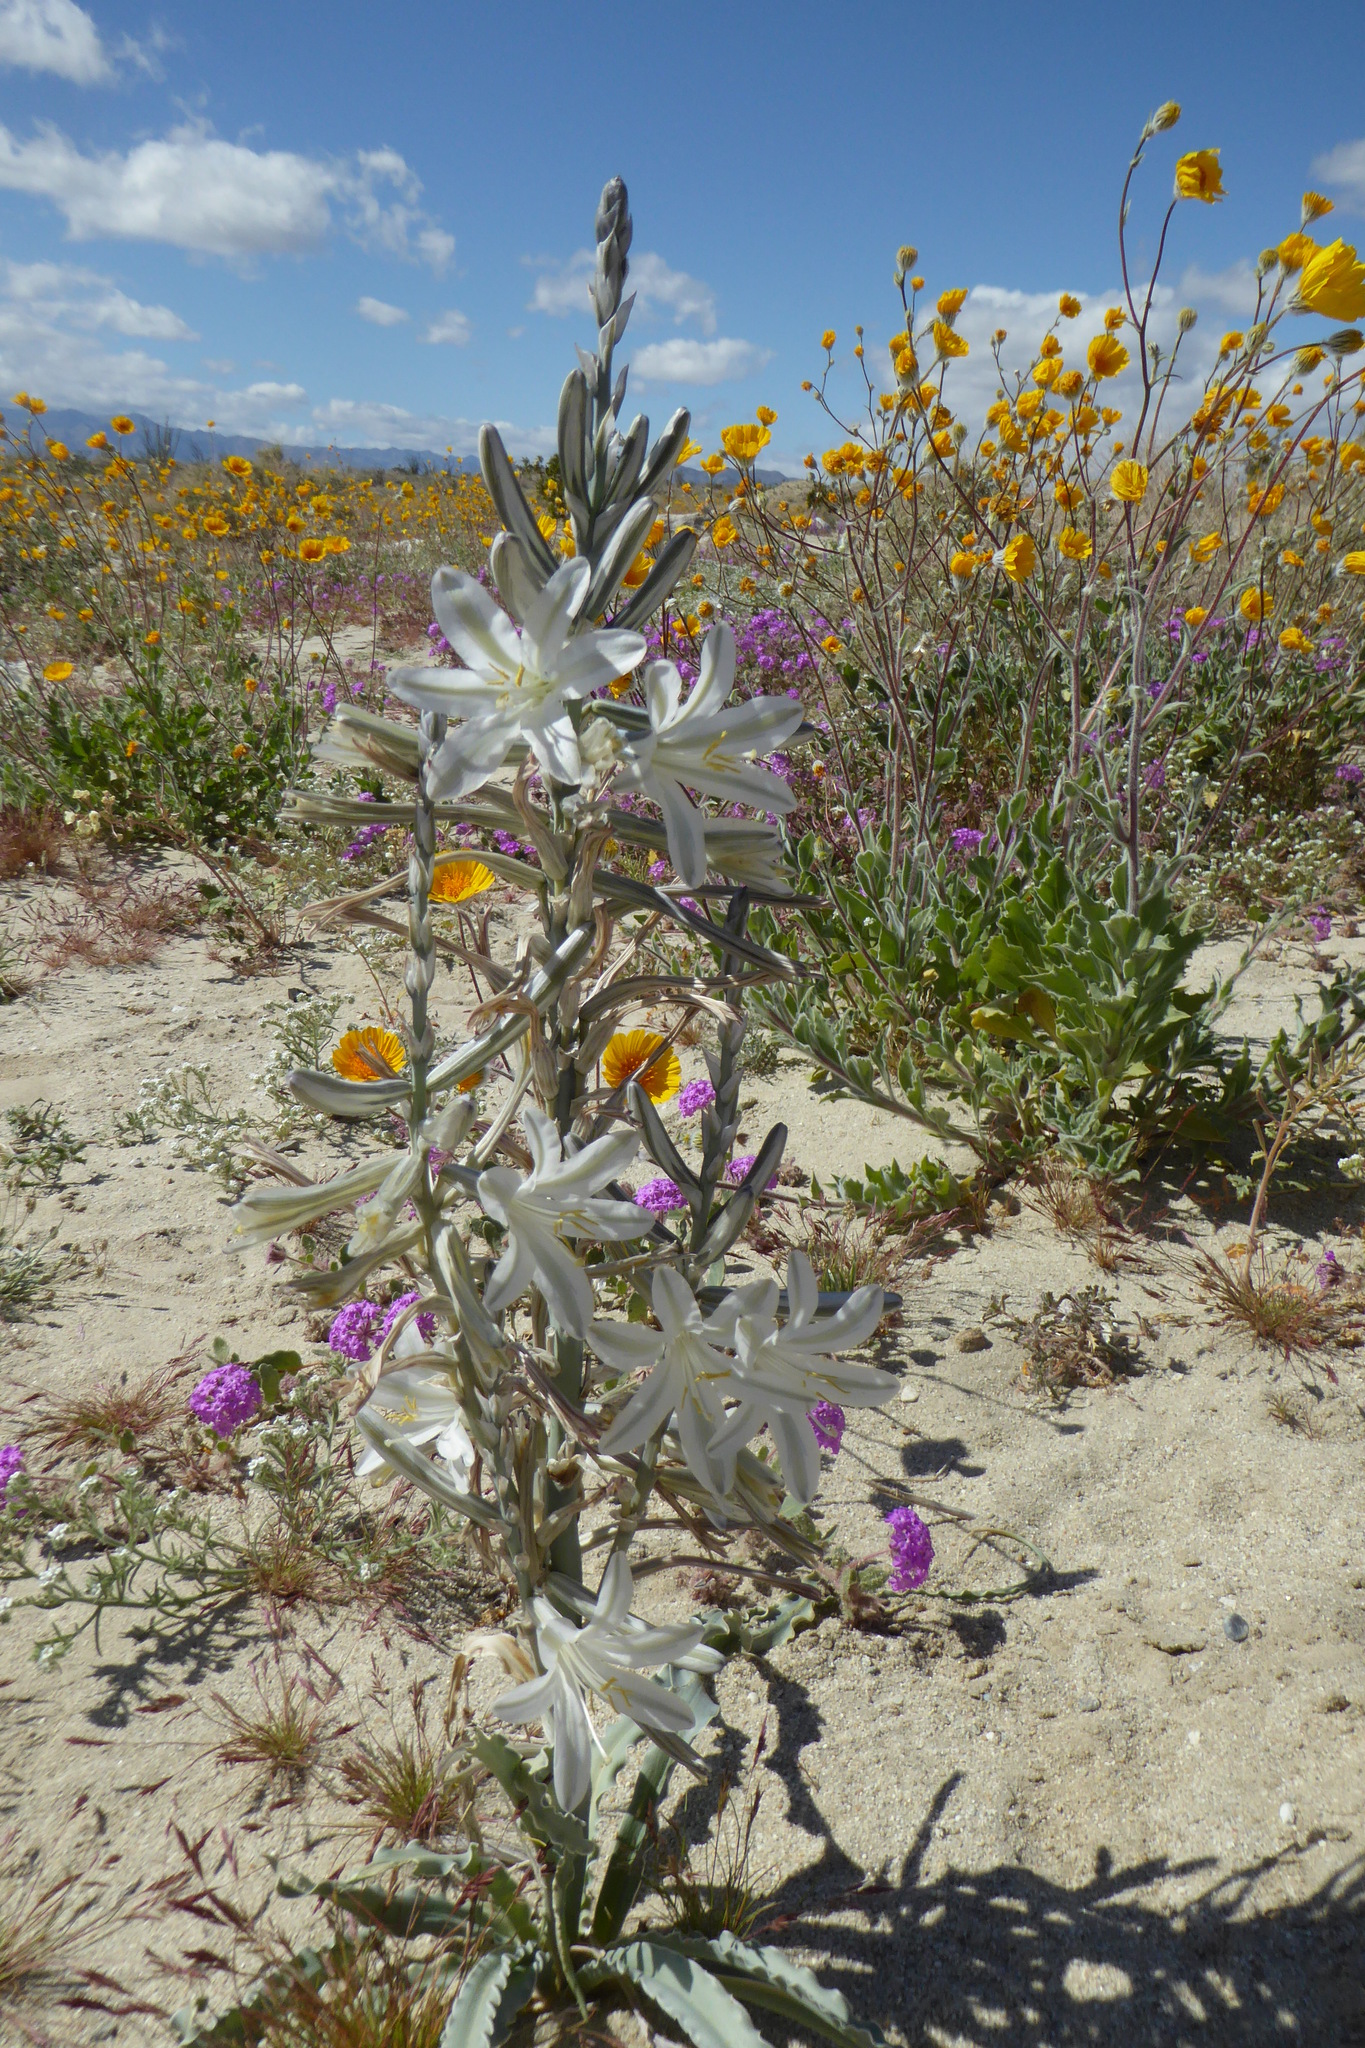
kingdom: Plantae
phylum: Tracheophyta
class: Liliopsida
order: Asparagales
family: Asparagaceae
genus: Hesperocallis
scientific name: Hesperocallis undulata
